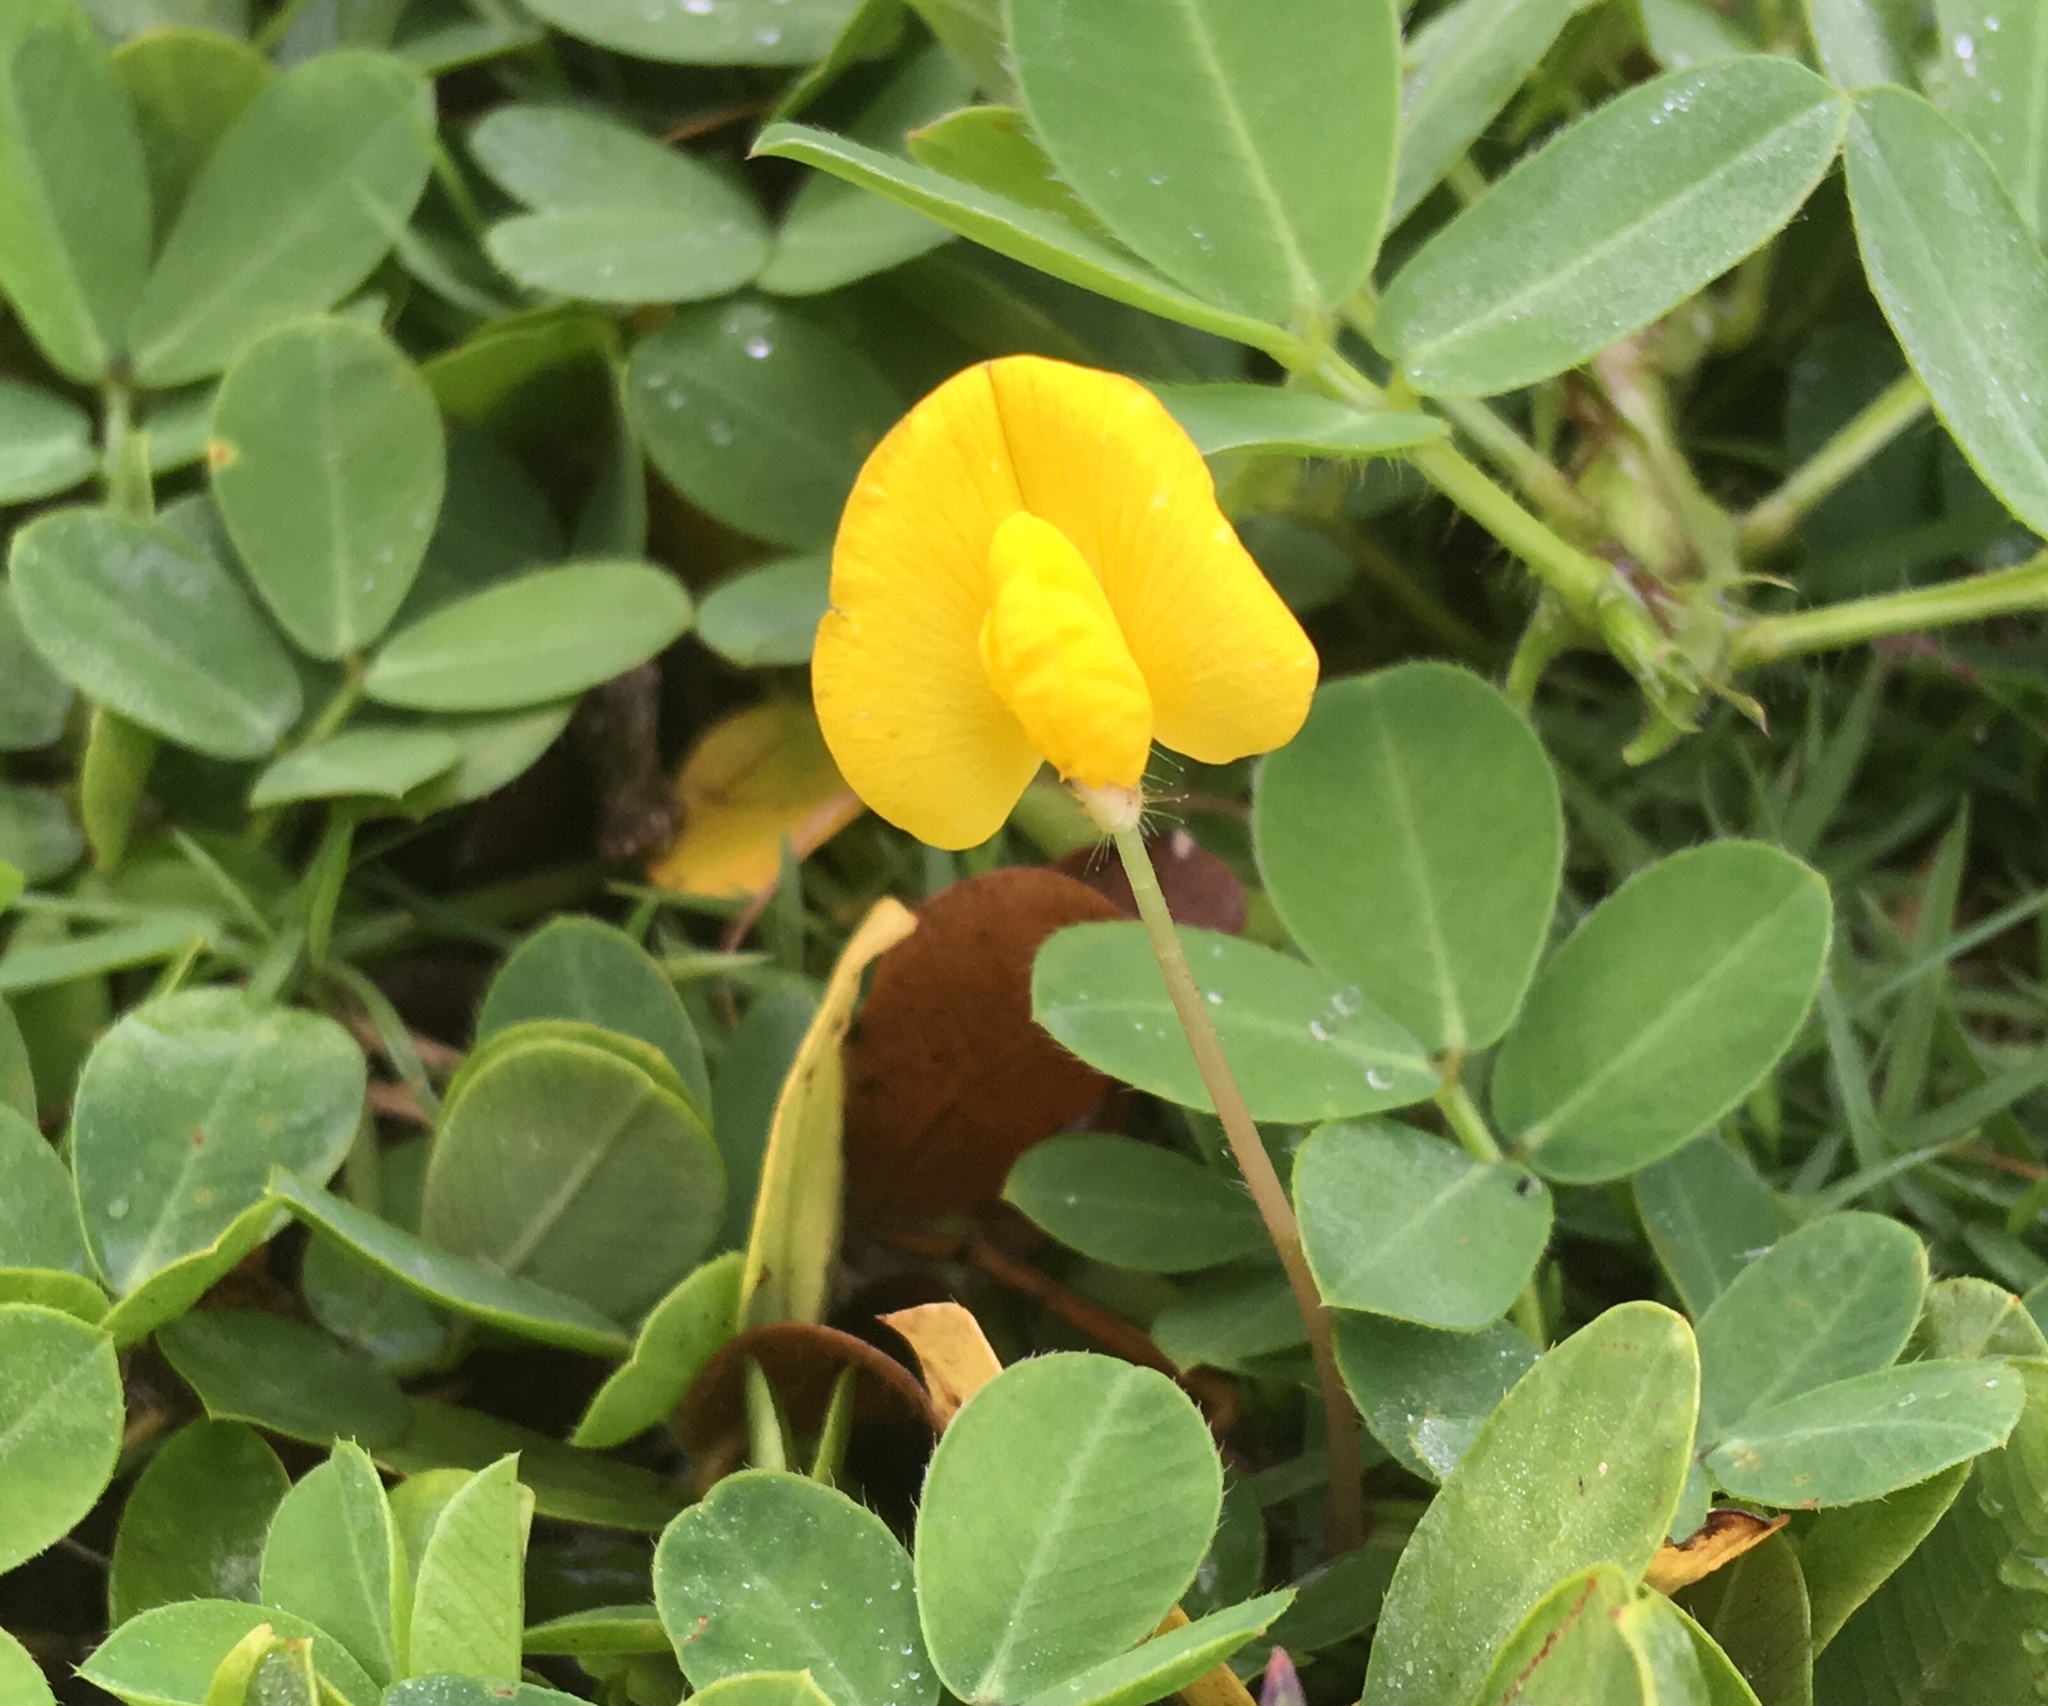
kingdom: Plantae
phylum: Tracheophyta
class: Magnoliopsida
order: Fabales
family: Fabaceae
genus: Arachis
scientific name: Arachis pintoi
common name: Pinto peanut
